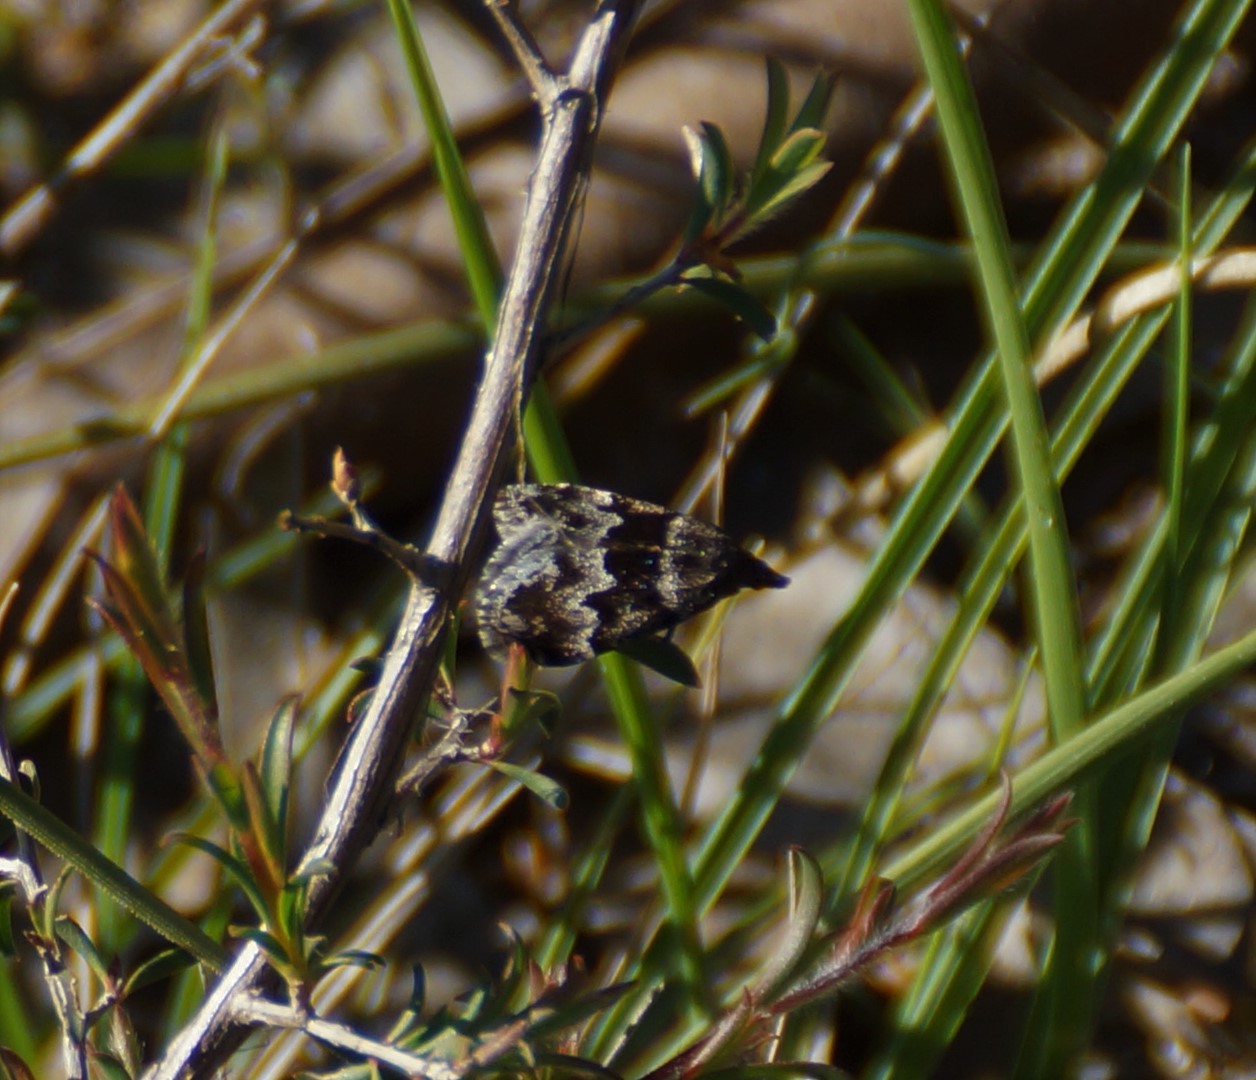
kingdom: Animalia
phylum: Arthropoda
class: Insecta
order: Lepidoptera
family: Geometridae
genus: Dichromodes
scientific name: Dichromodes ainaria
